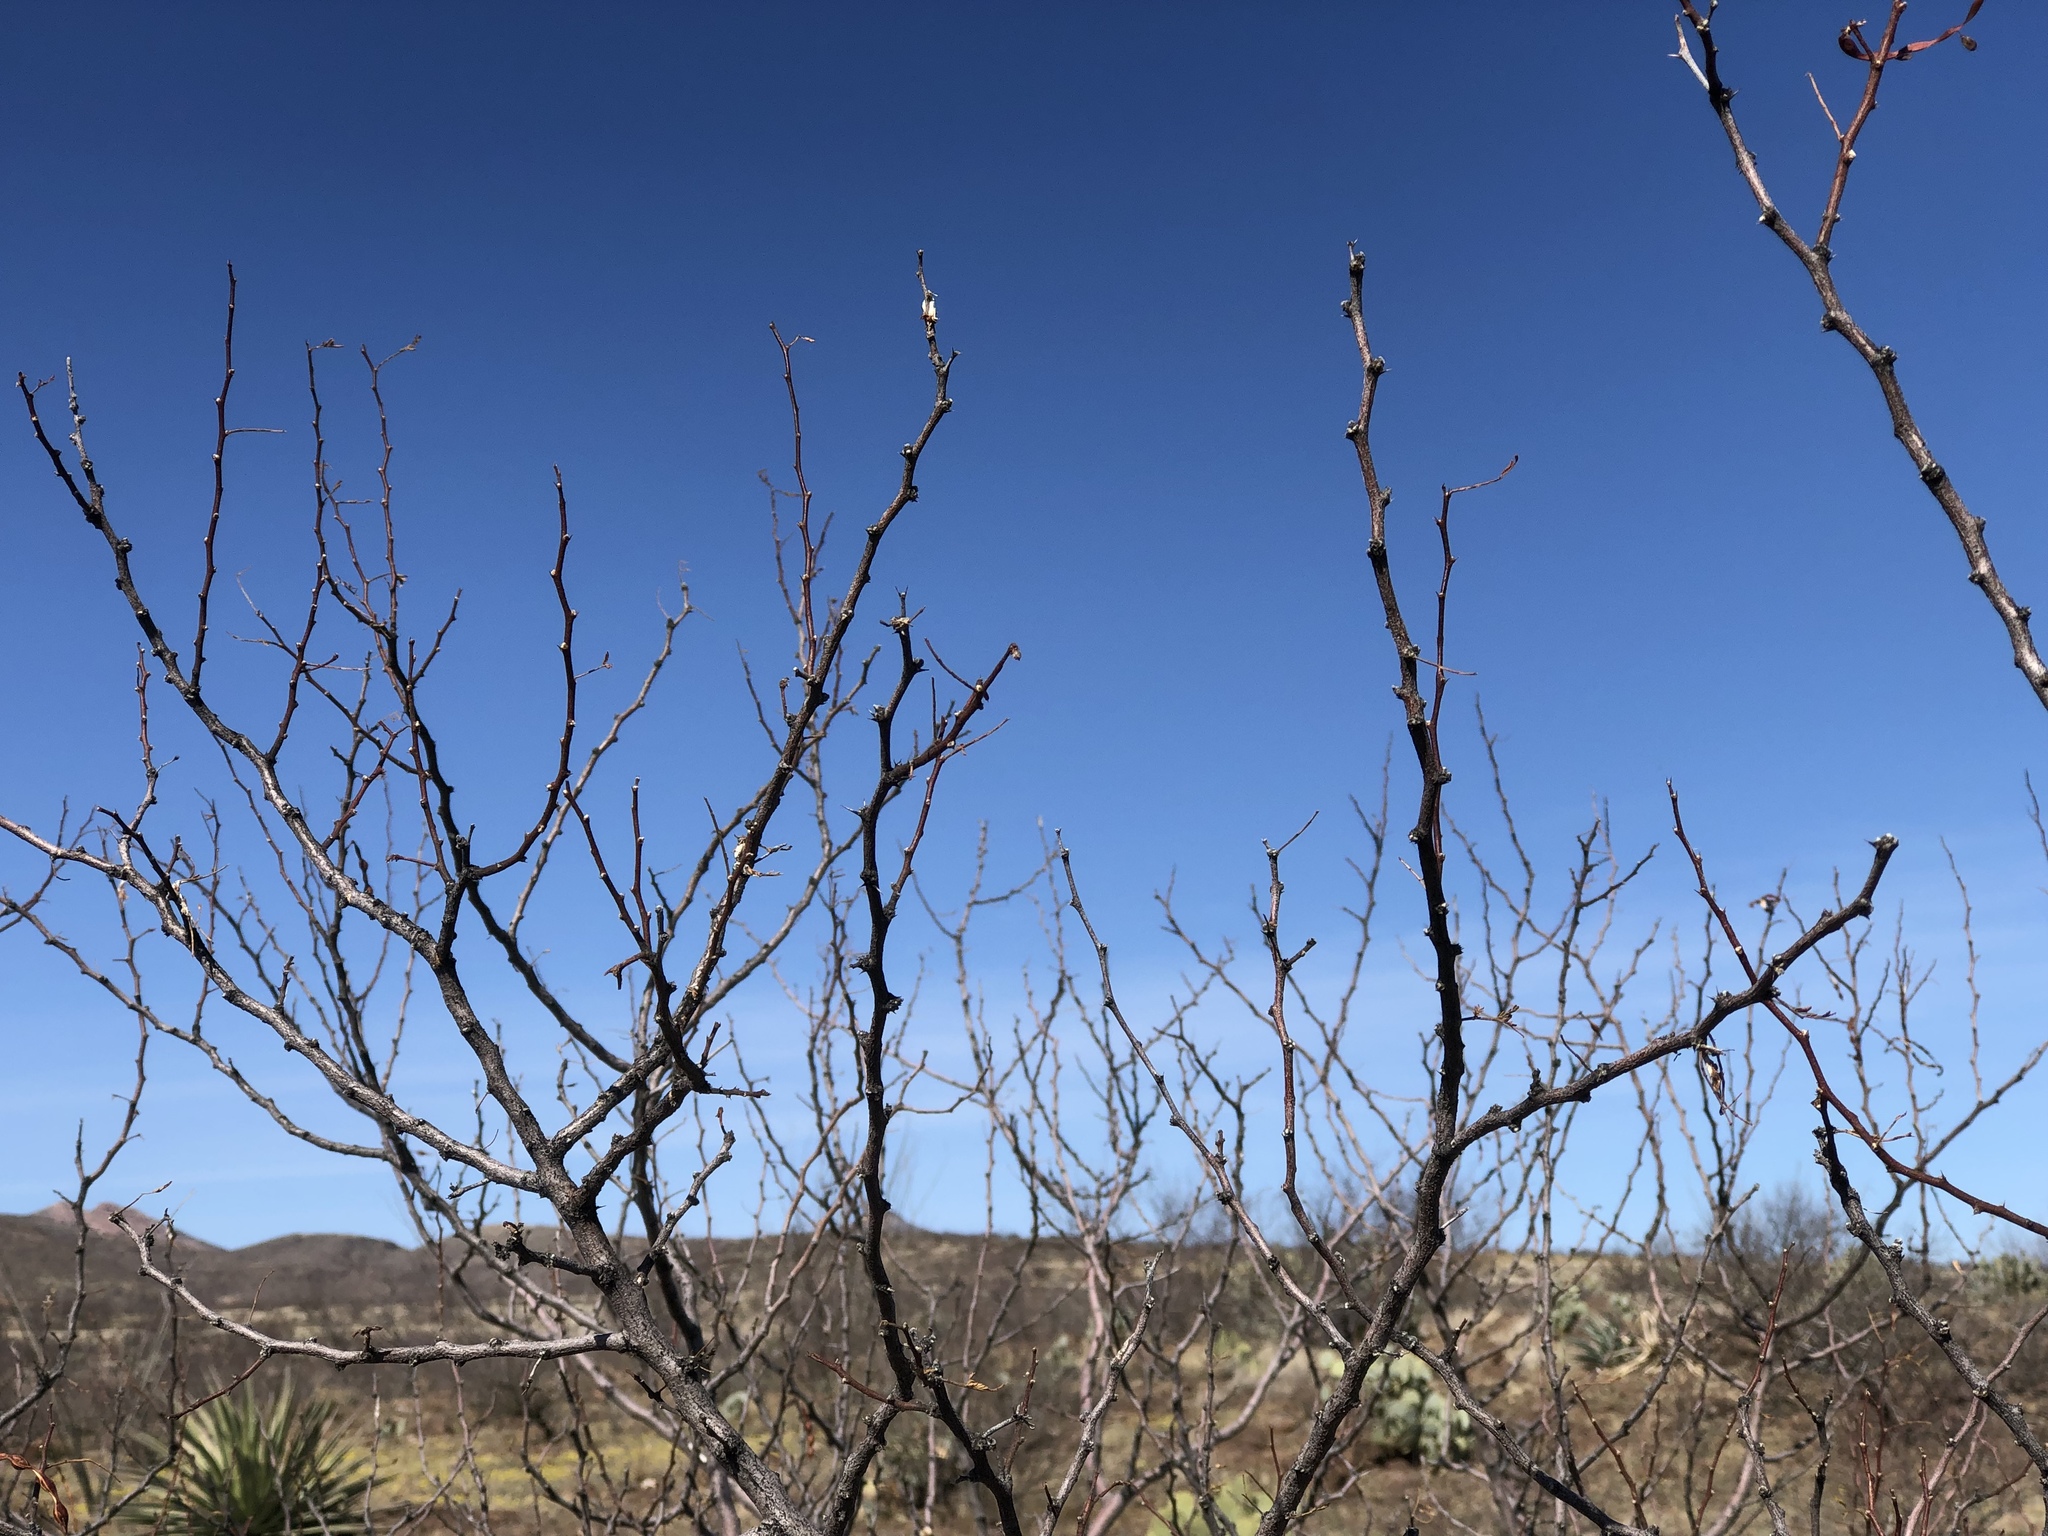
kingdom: Plantae
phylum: Tracheophyta
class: Magnoliopsida
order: Fabales
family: Fabaceae
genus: Prosopis
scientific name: Prosopis glandulosa
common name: Honey mesquite
